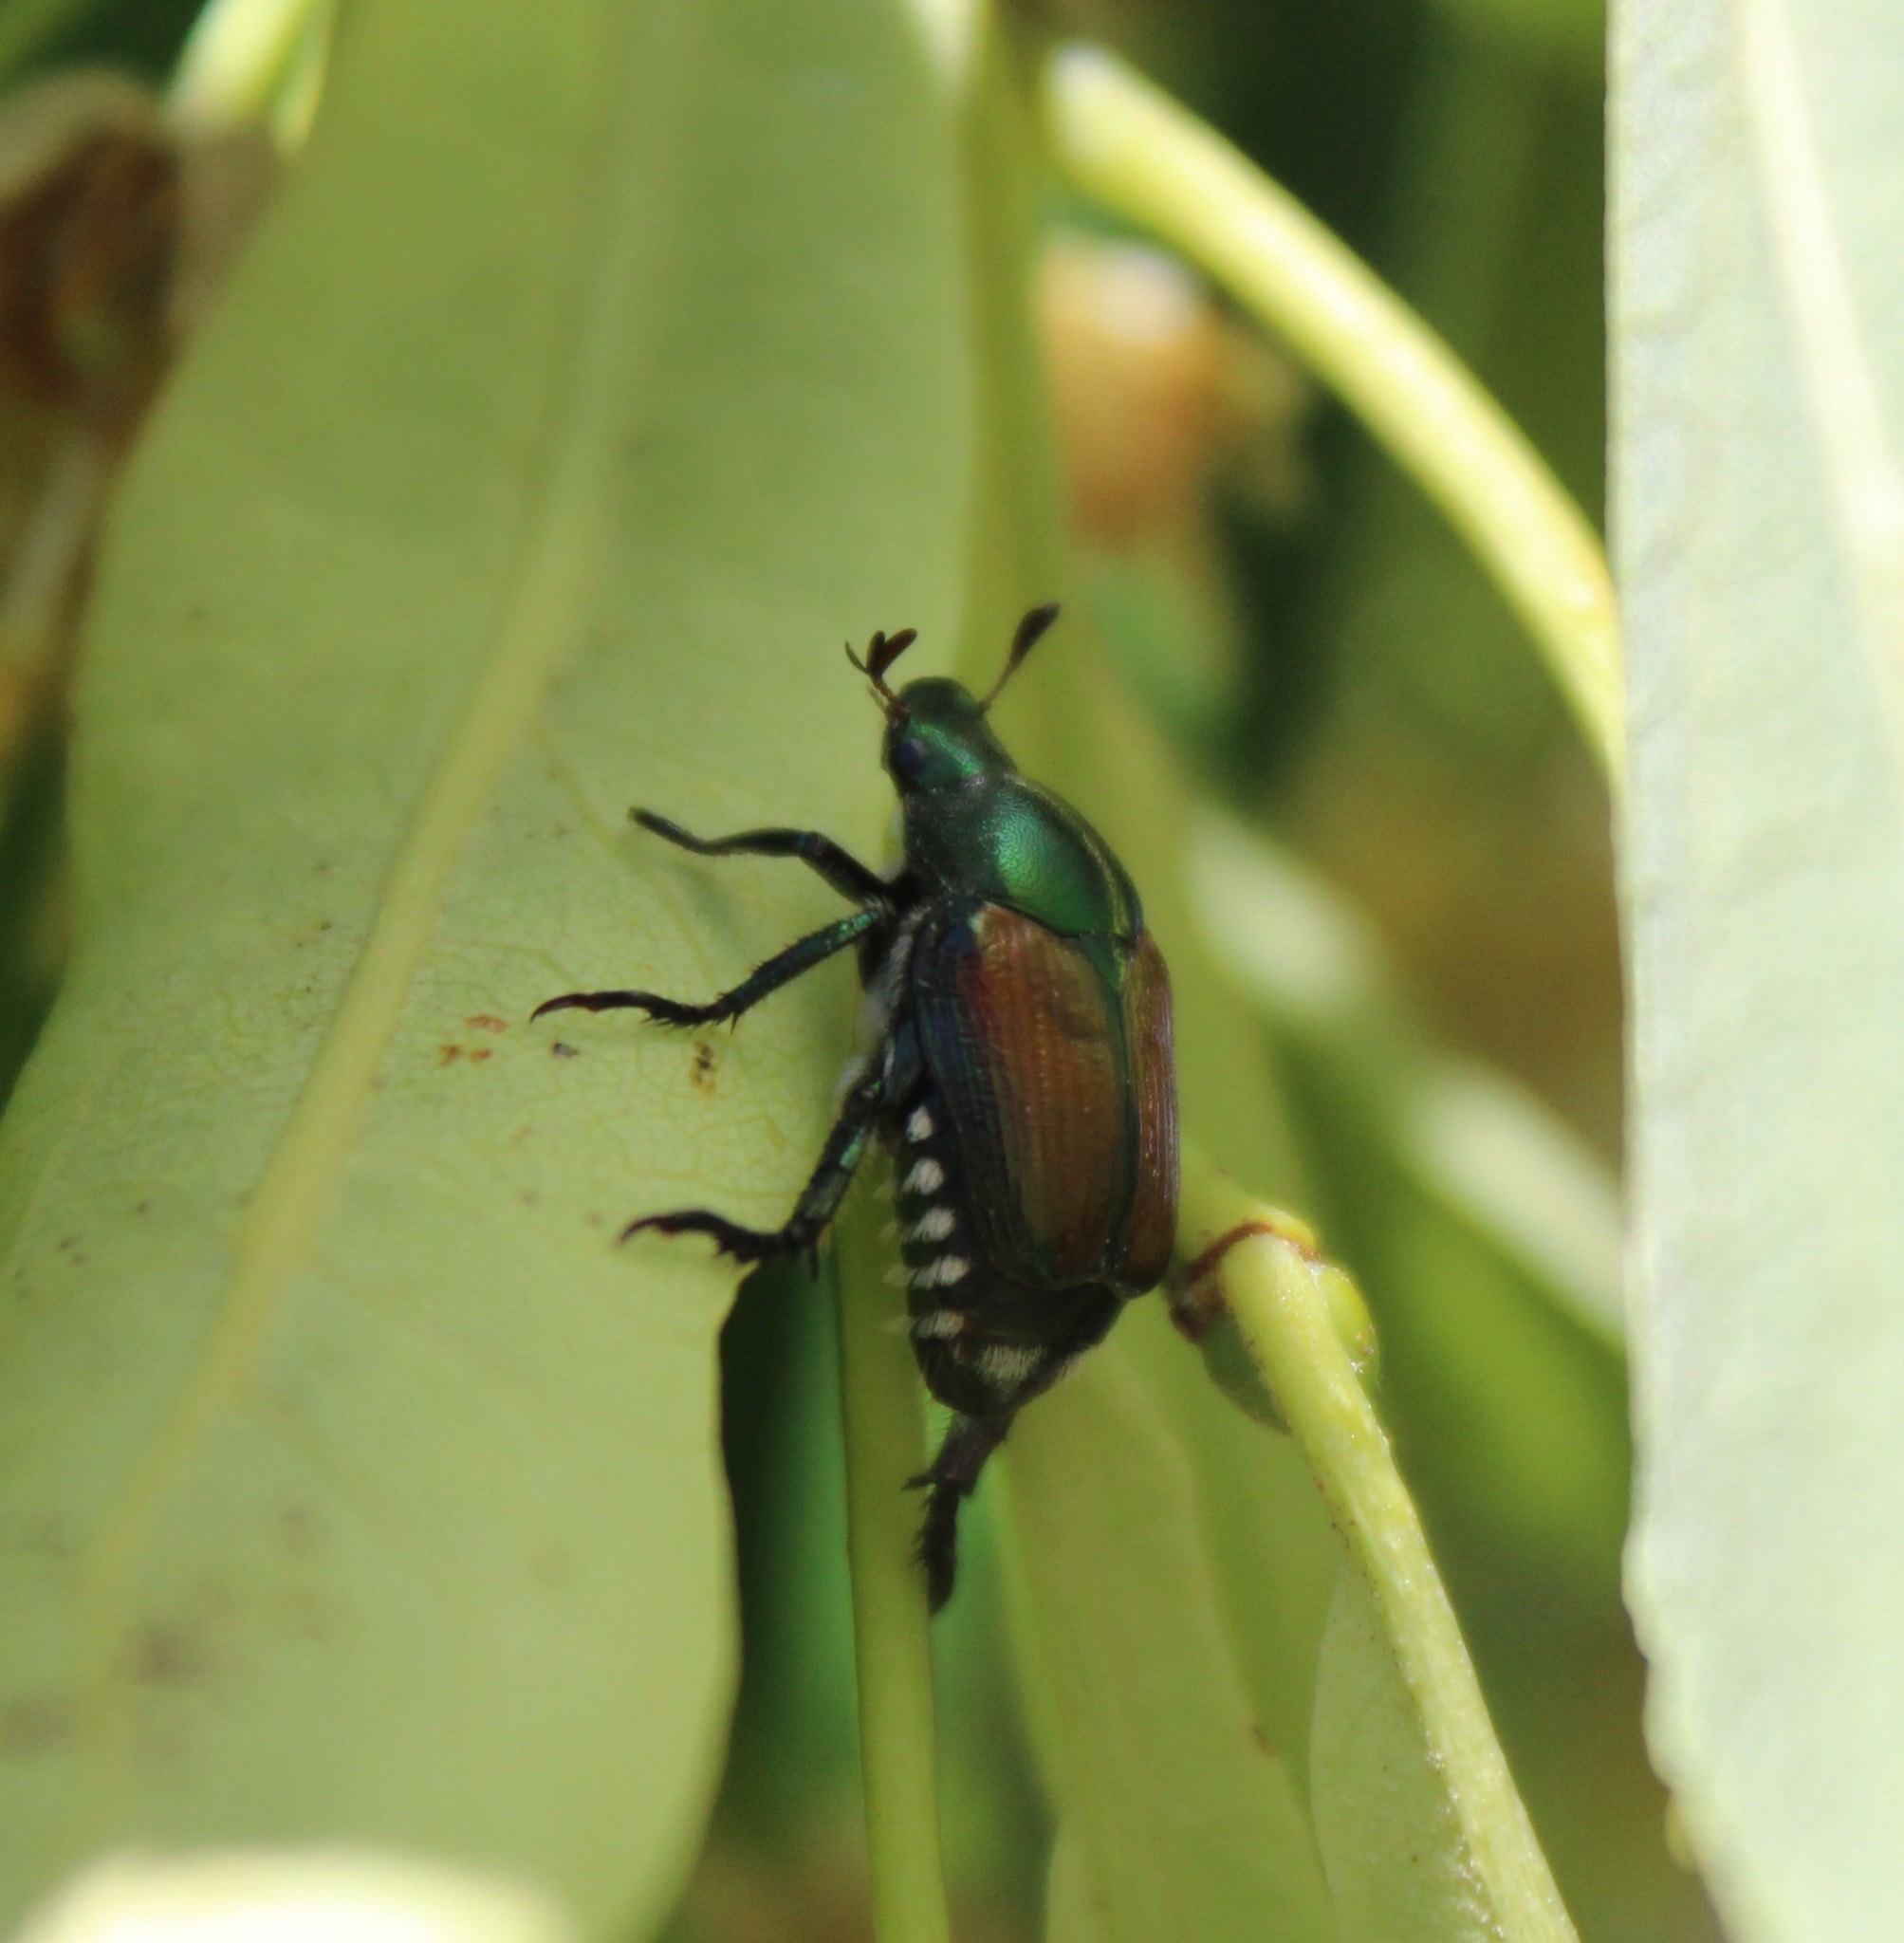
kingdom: Animalia
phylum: Arthropoda
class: Insecta
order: Coleoptera
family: Scarabaeidae
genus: Popillia
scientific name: Popillia japonica
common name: Japanese beetle
